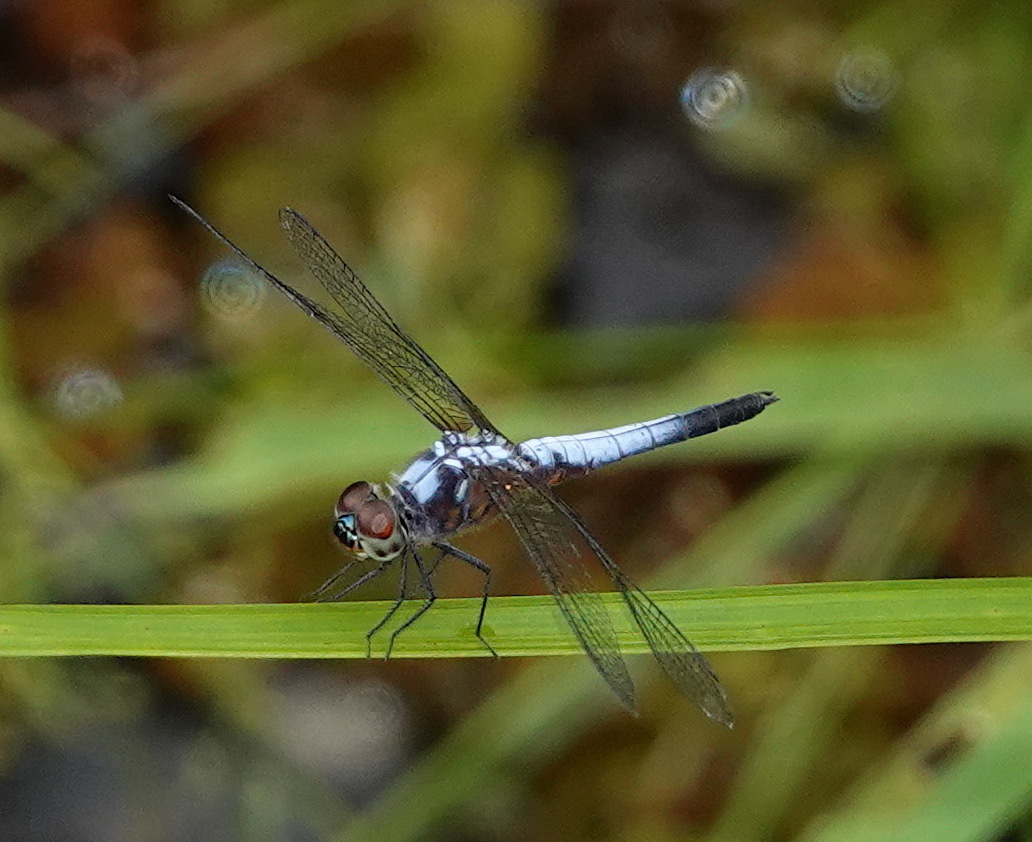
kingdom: Animalia
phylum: Arthropoda
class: Insecta
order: Odonata
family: Libellulidae
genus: Brachydiplax
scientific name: Brachydiplax chalybea
